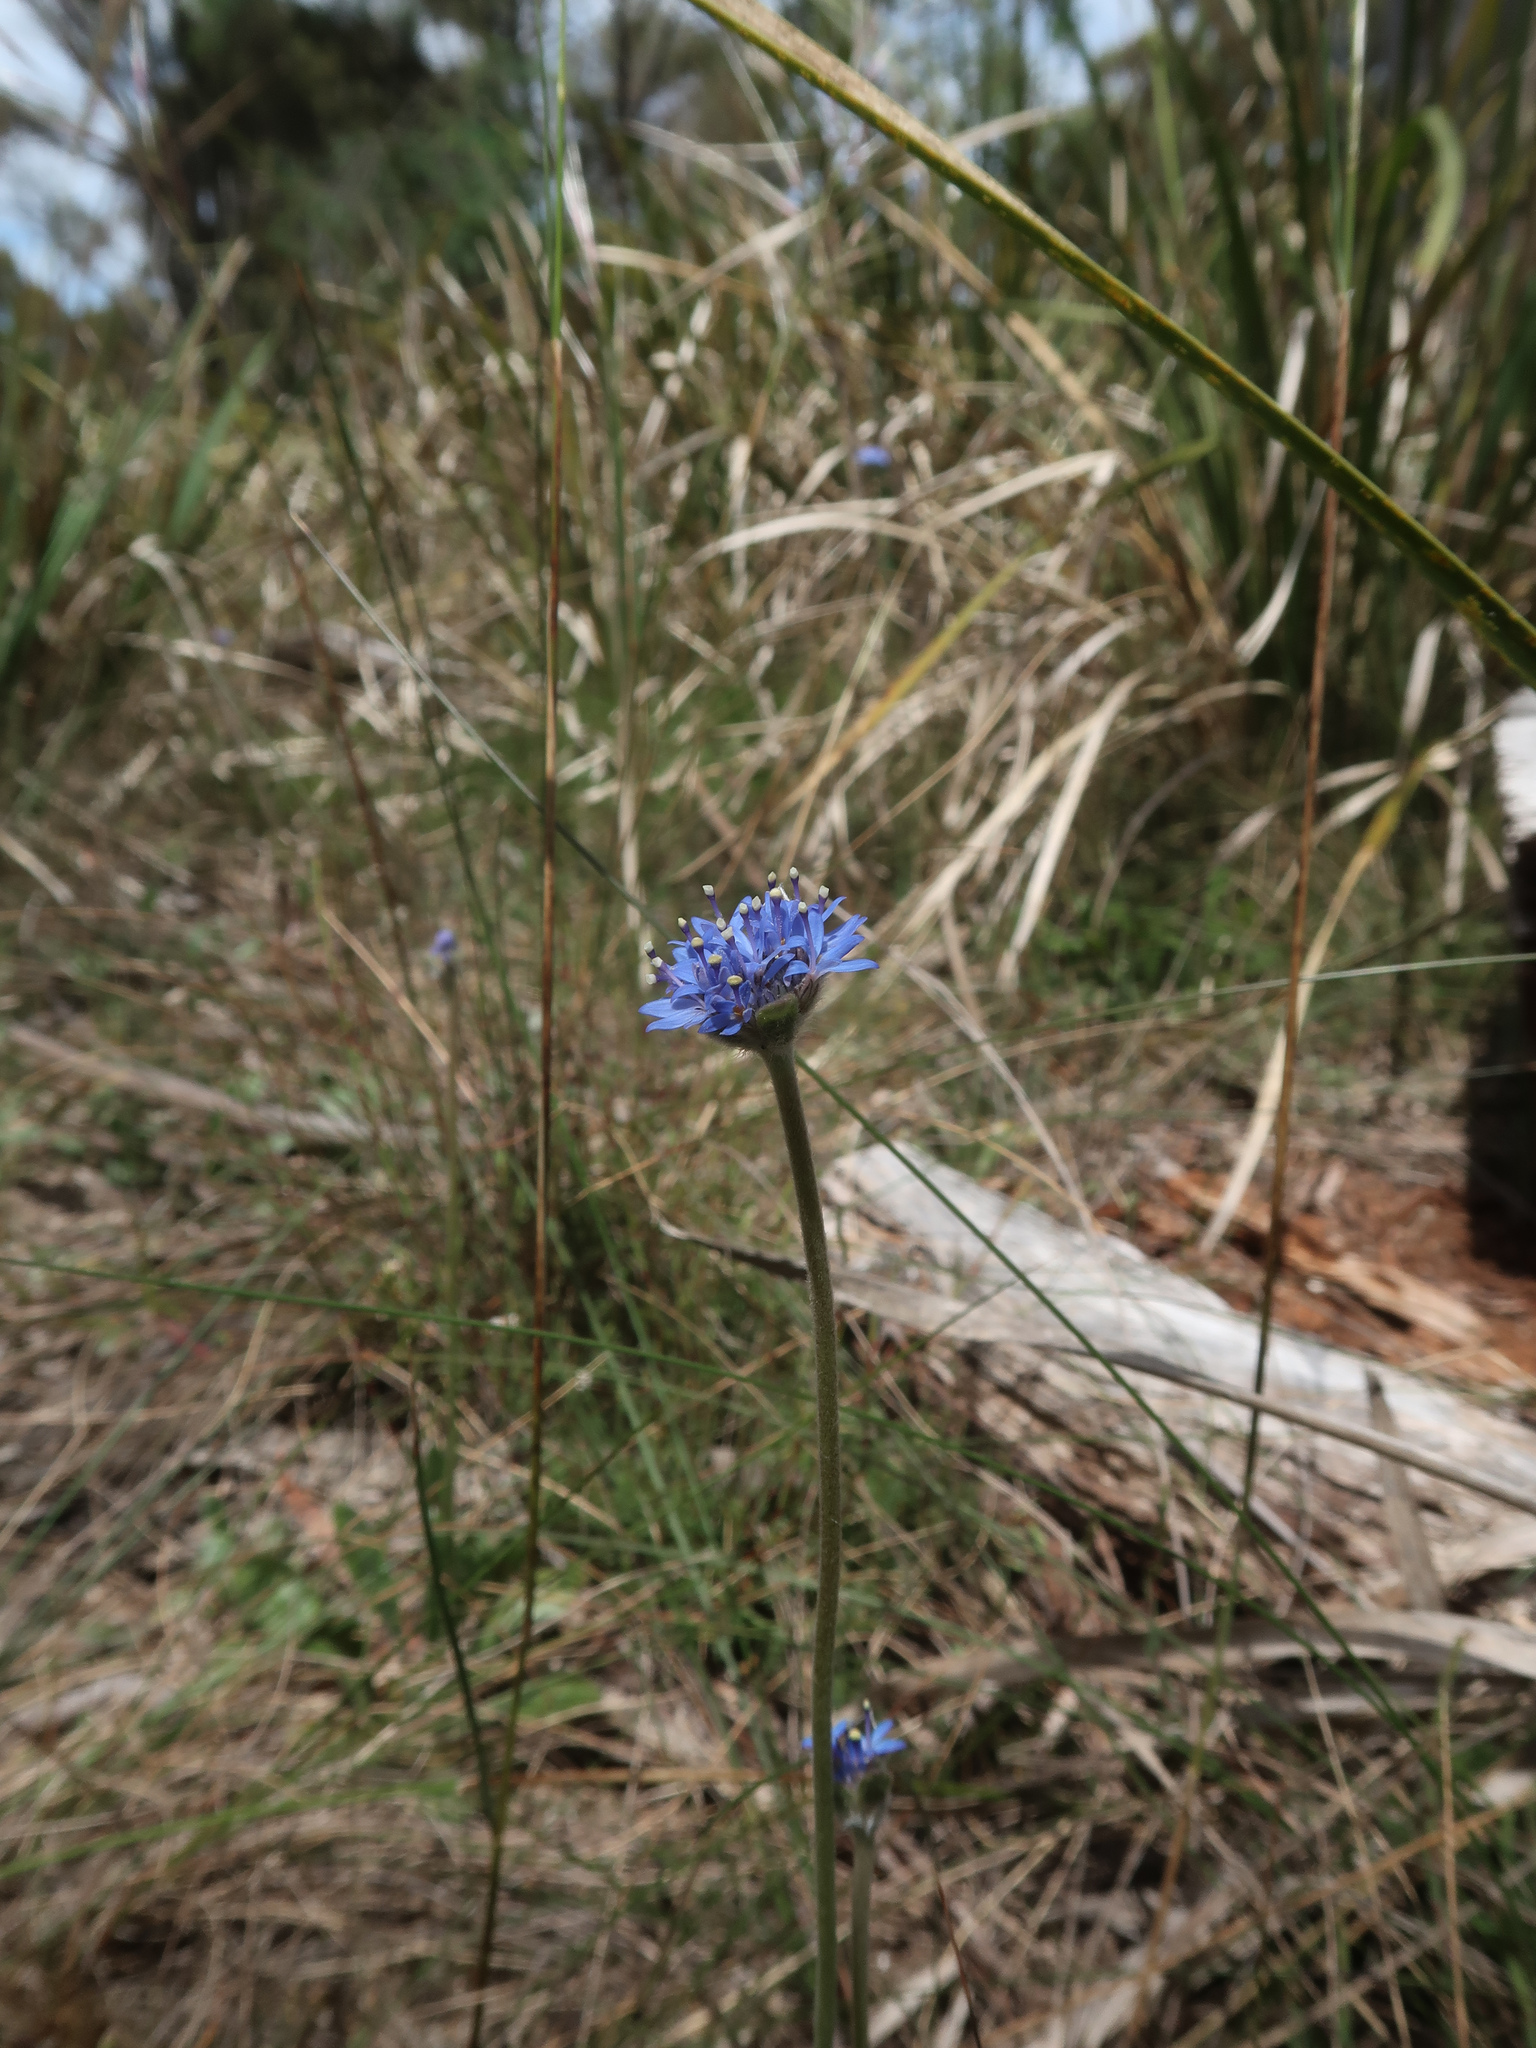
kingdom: Plantae
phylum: Tracheophyta
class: Magnoliopsida
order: Asterales
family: Goodeniaceae
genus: Brunonia
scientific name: Brunonia australis
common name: Blue pincushion
